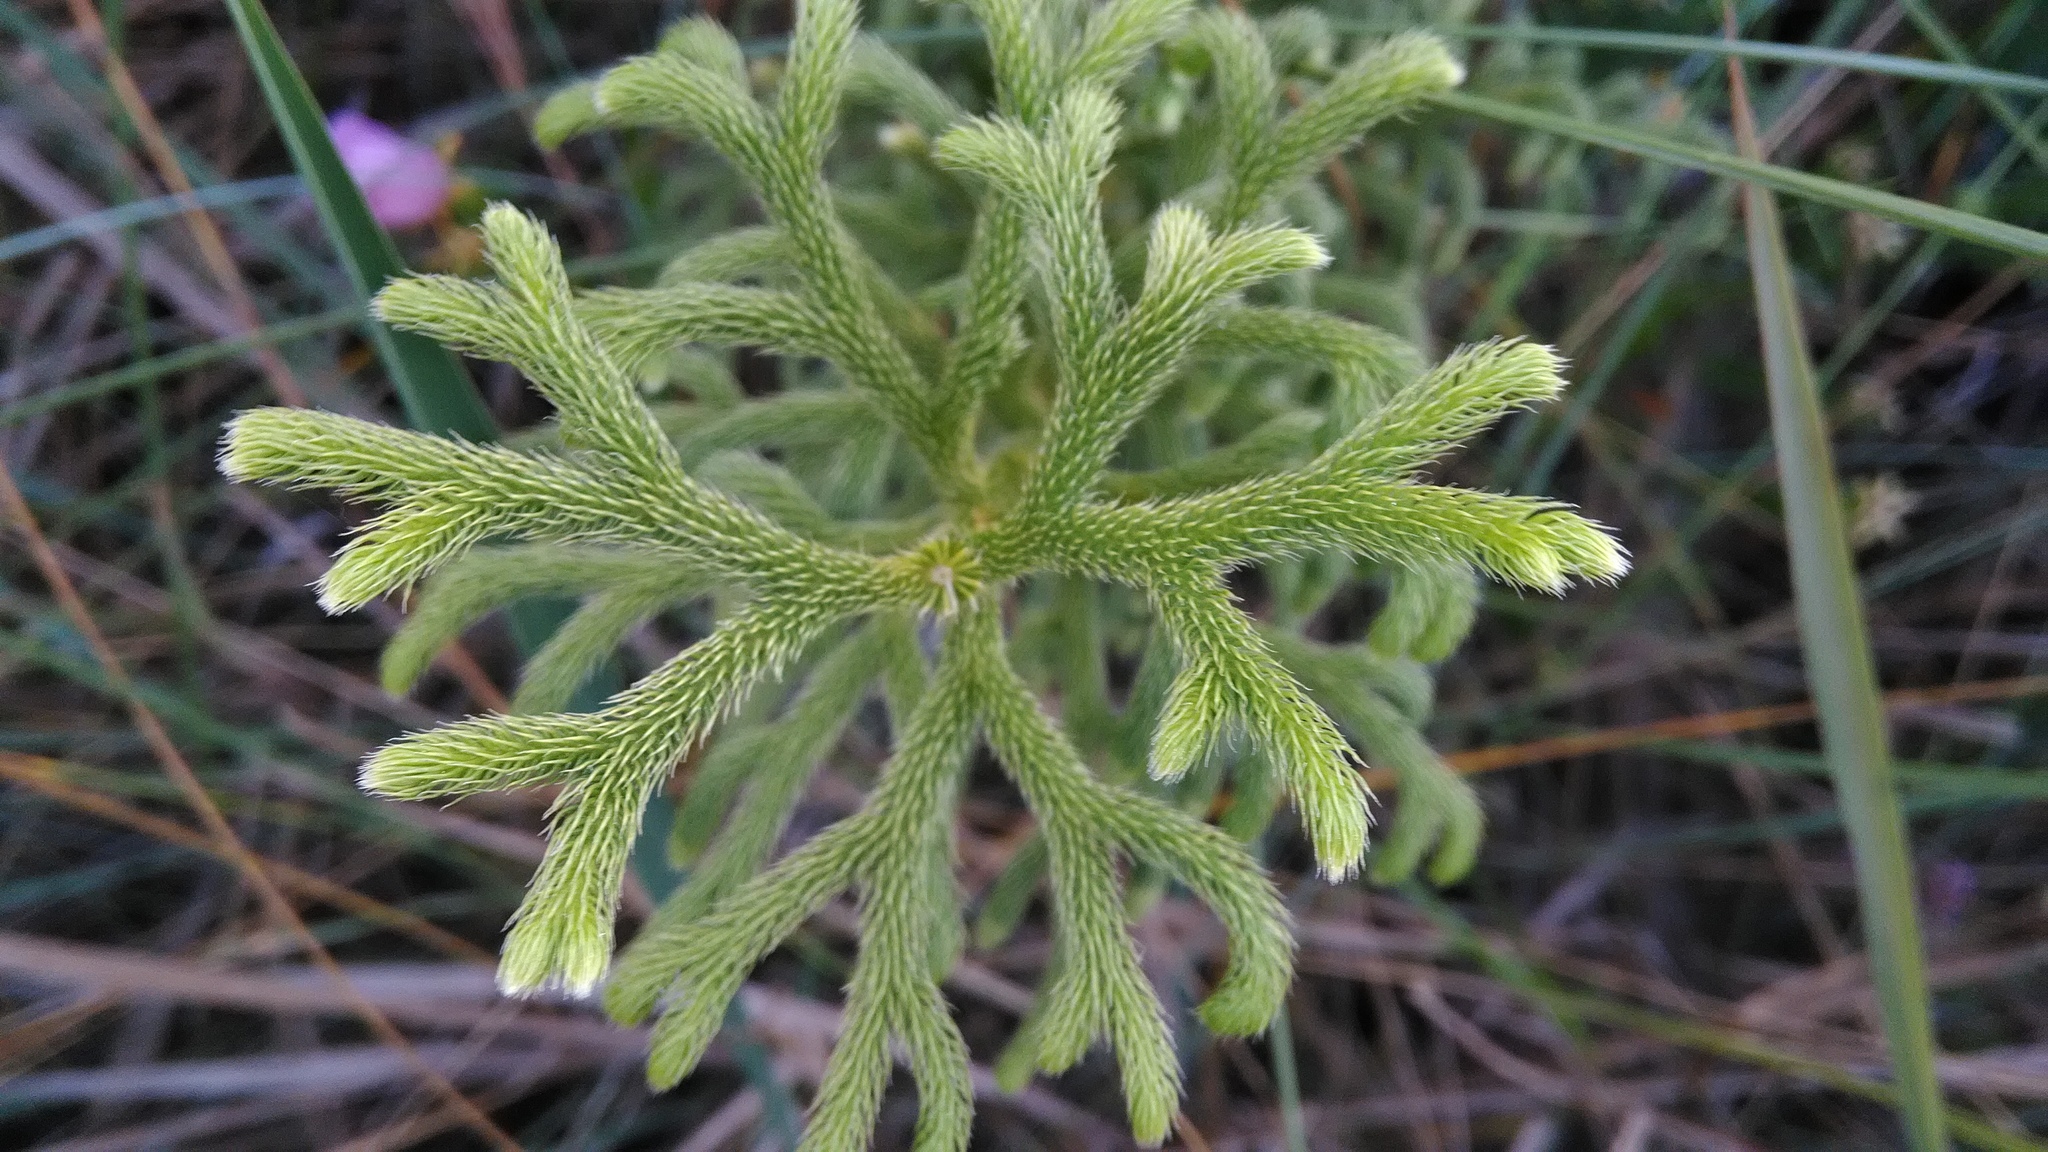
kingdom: Plantae
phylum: Tracheophyta
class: Lycopodiopsida
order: Lycopodiales
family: Lycopodiaceae
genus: Palhinhaea
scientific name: Palhinhaea camporum
